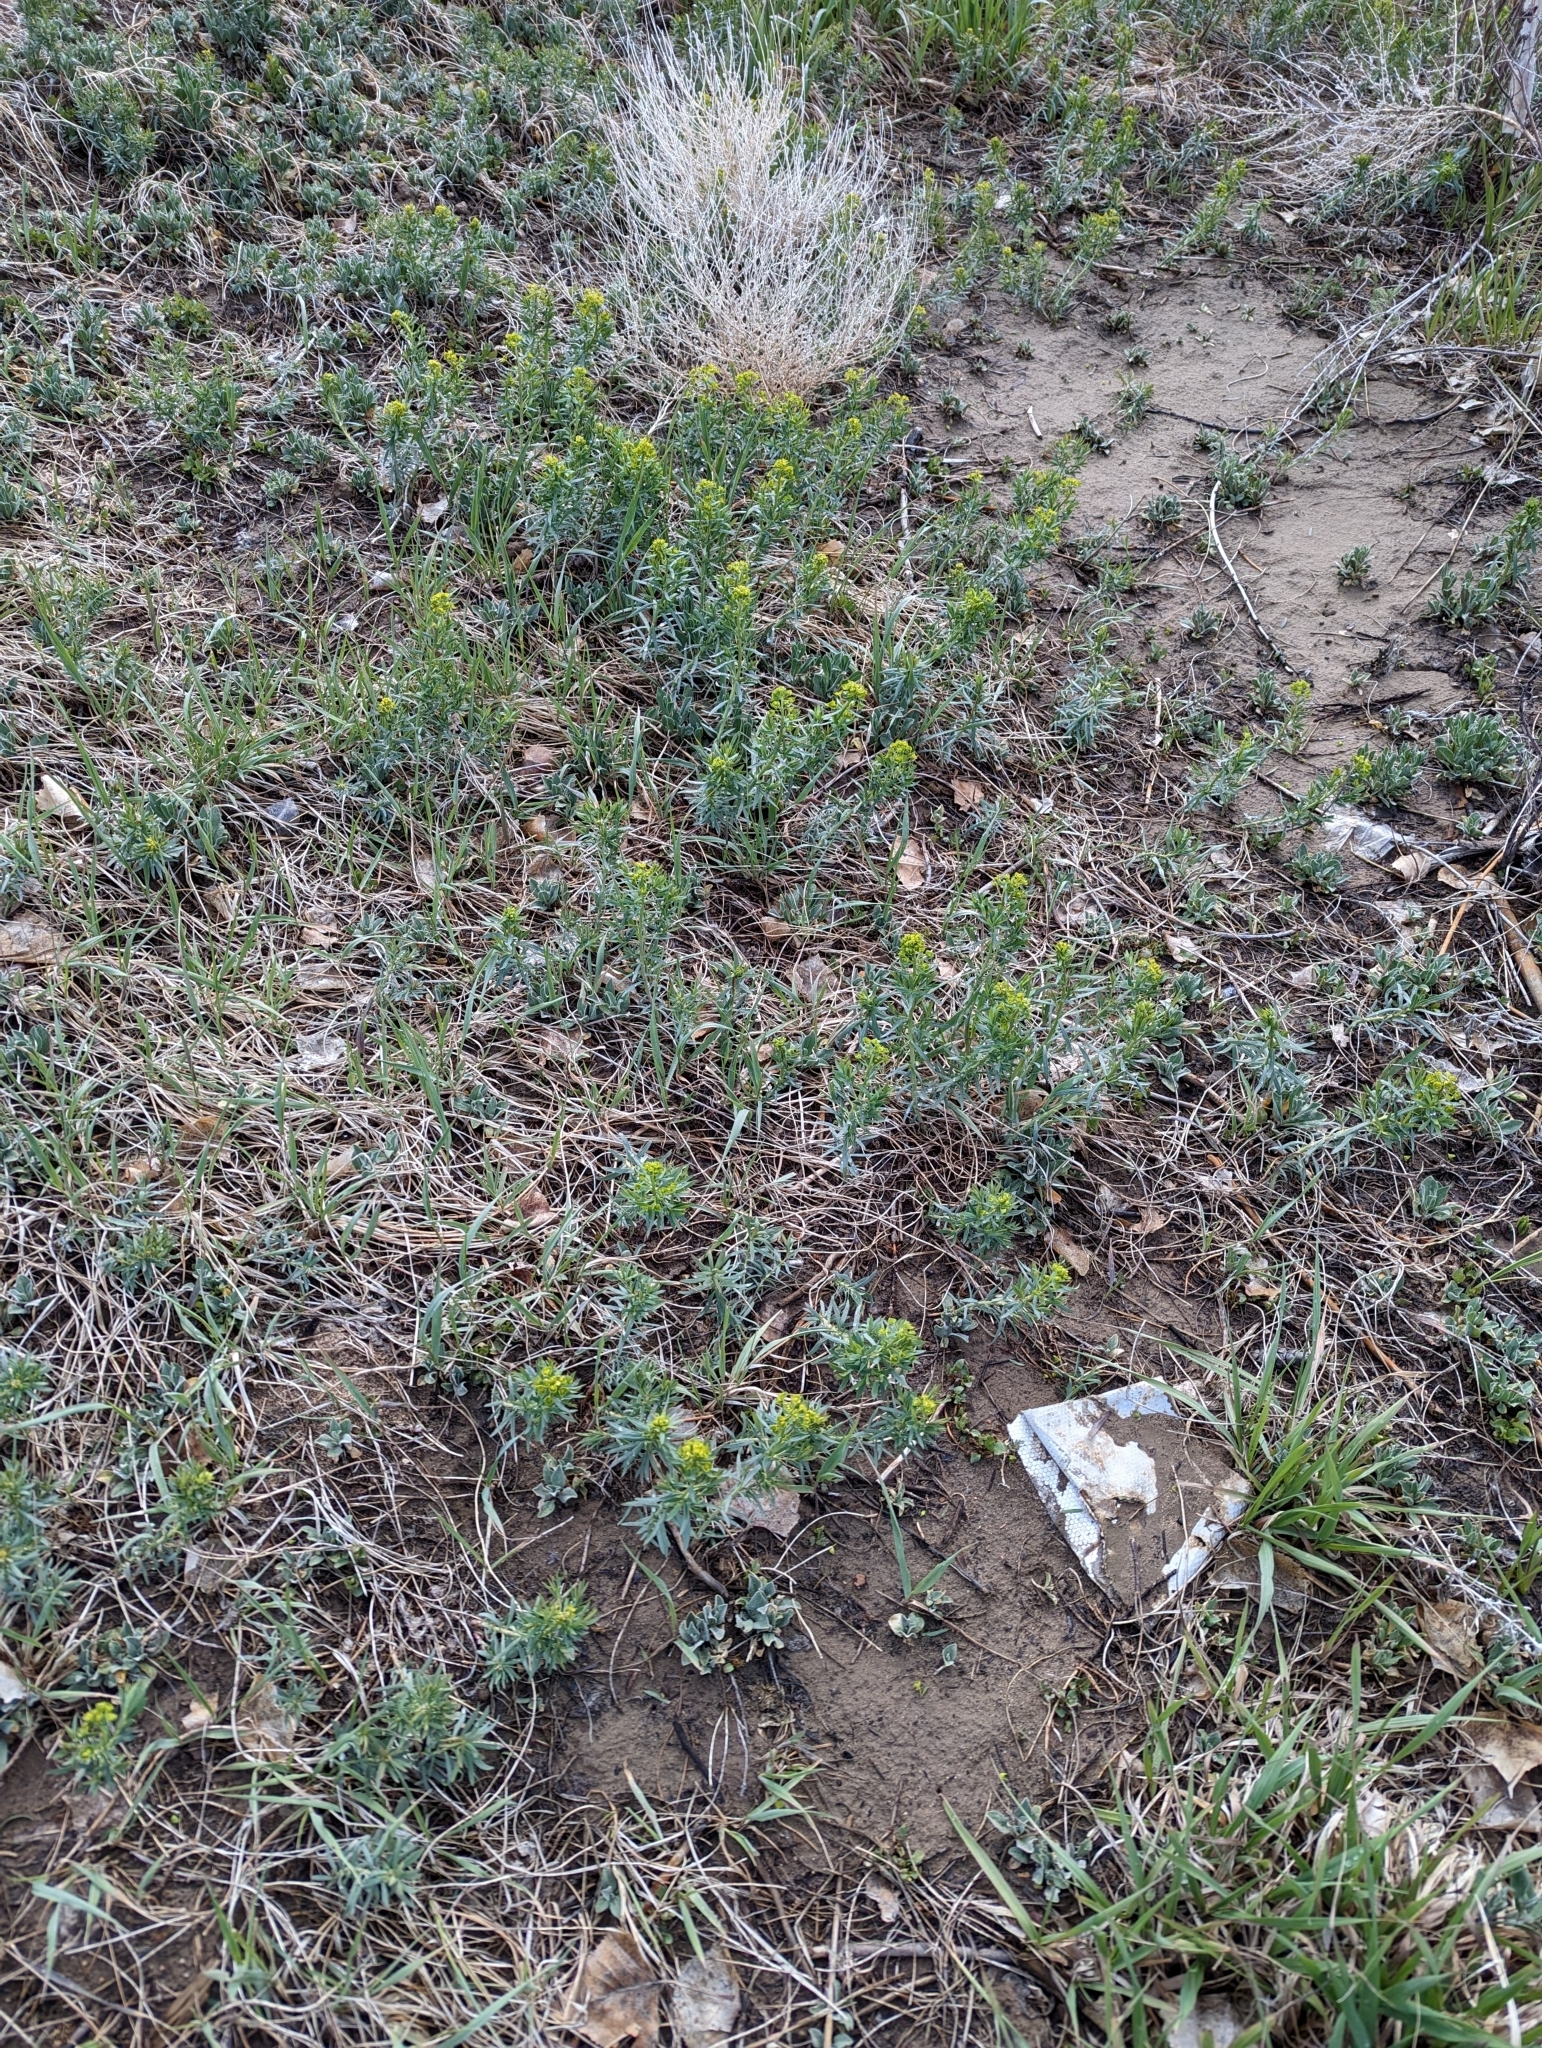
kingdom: Plantae
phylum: Tracheophyta
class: Magnoliopsida
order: Malpighiales
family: Euphorbiaceae
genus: Euphorbia
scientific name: Euphorbia virgata
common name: Leafy spurge
